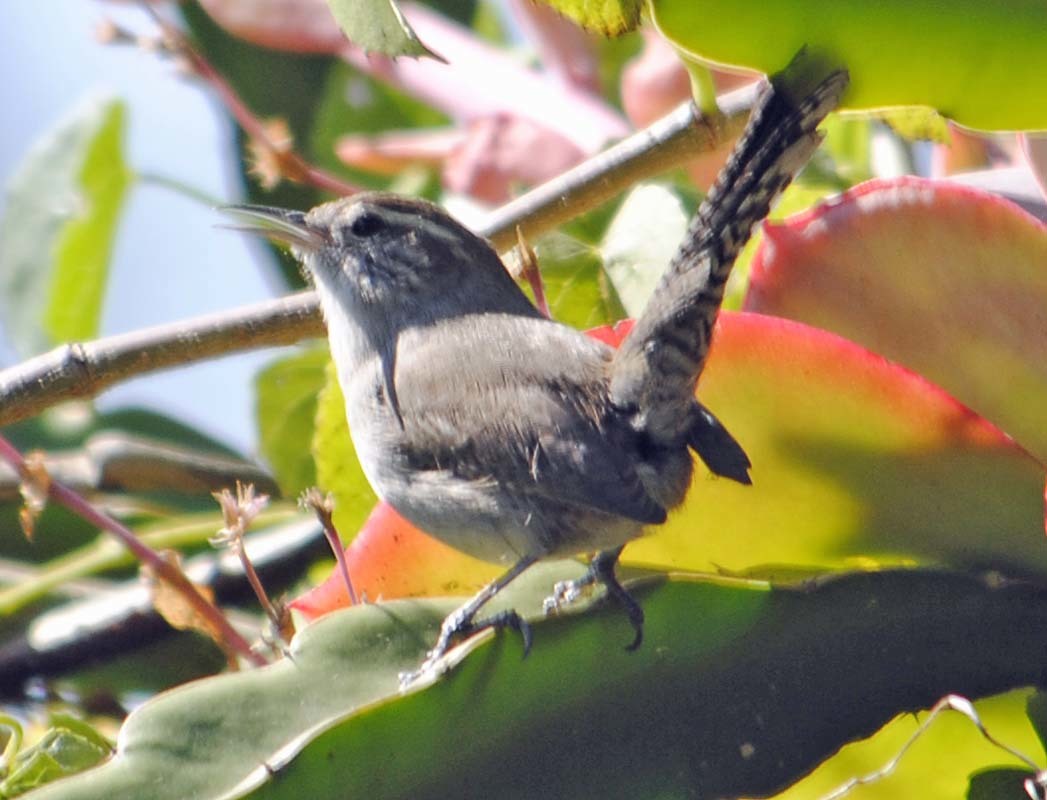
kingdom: Animalia
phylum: Chordata
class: Aves
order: Passeriformes
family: Troglodytidae
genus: Thryomanes
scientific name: Thryomanes bewickii
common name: Bewick's wren
